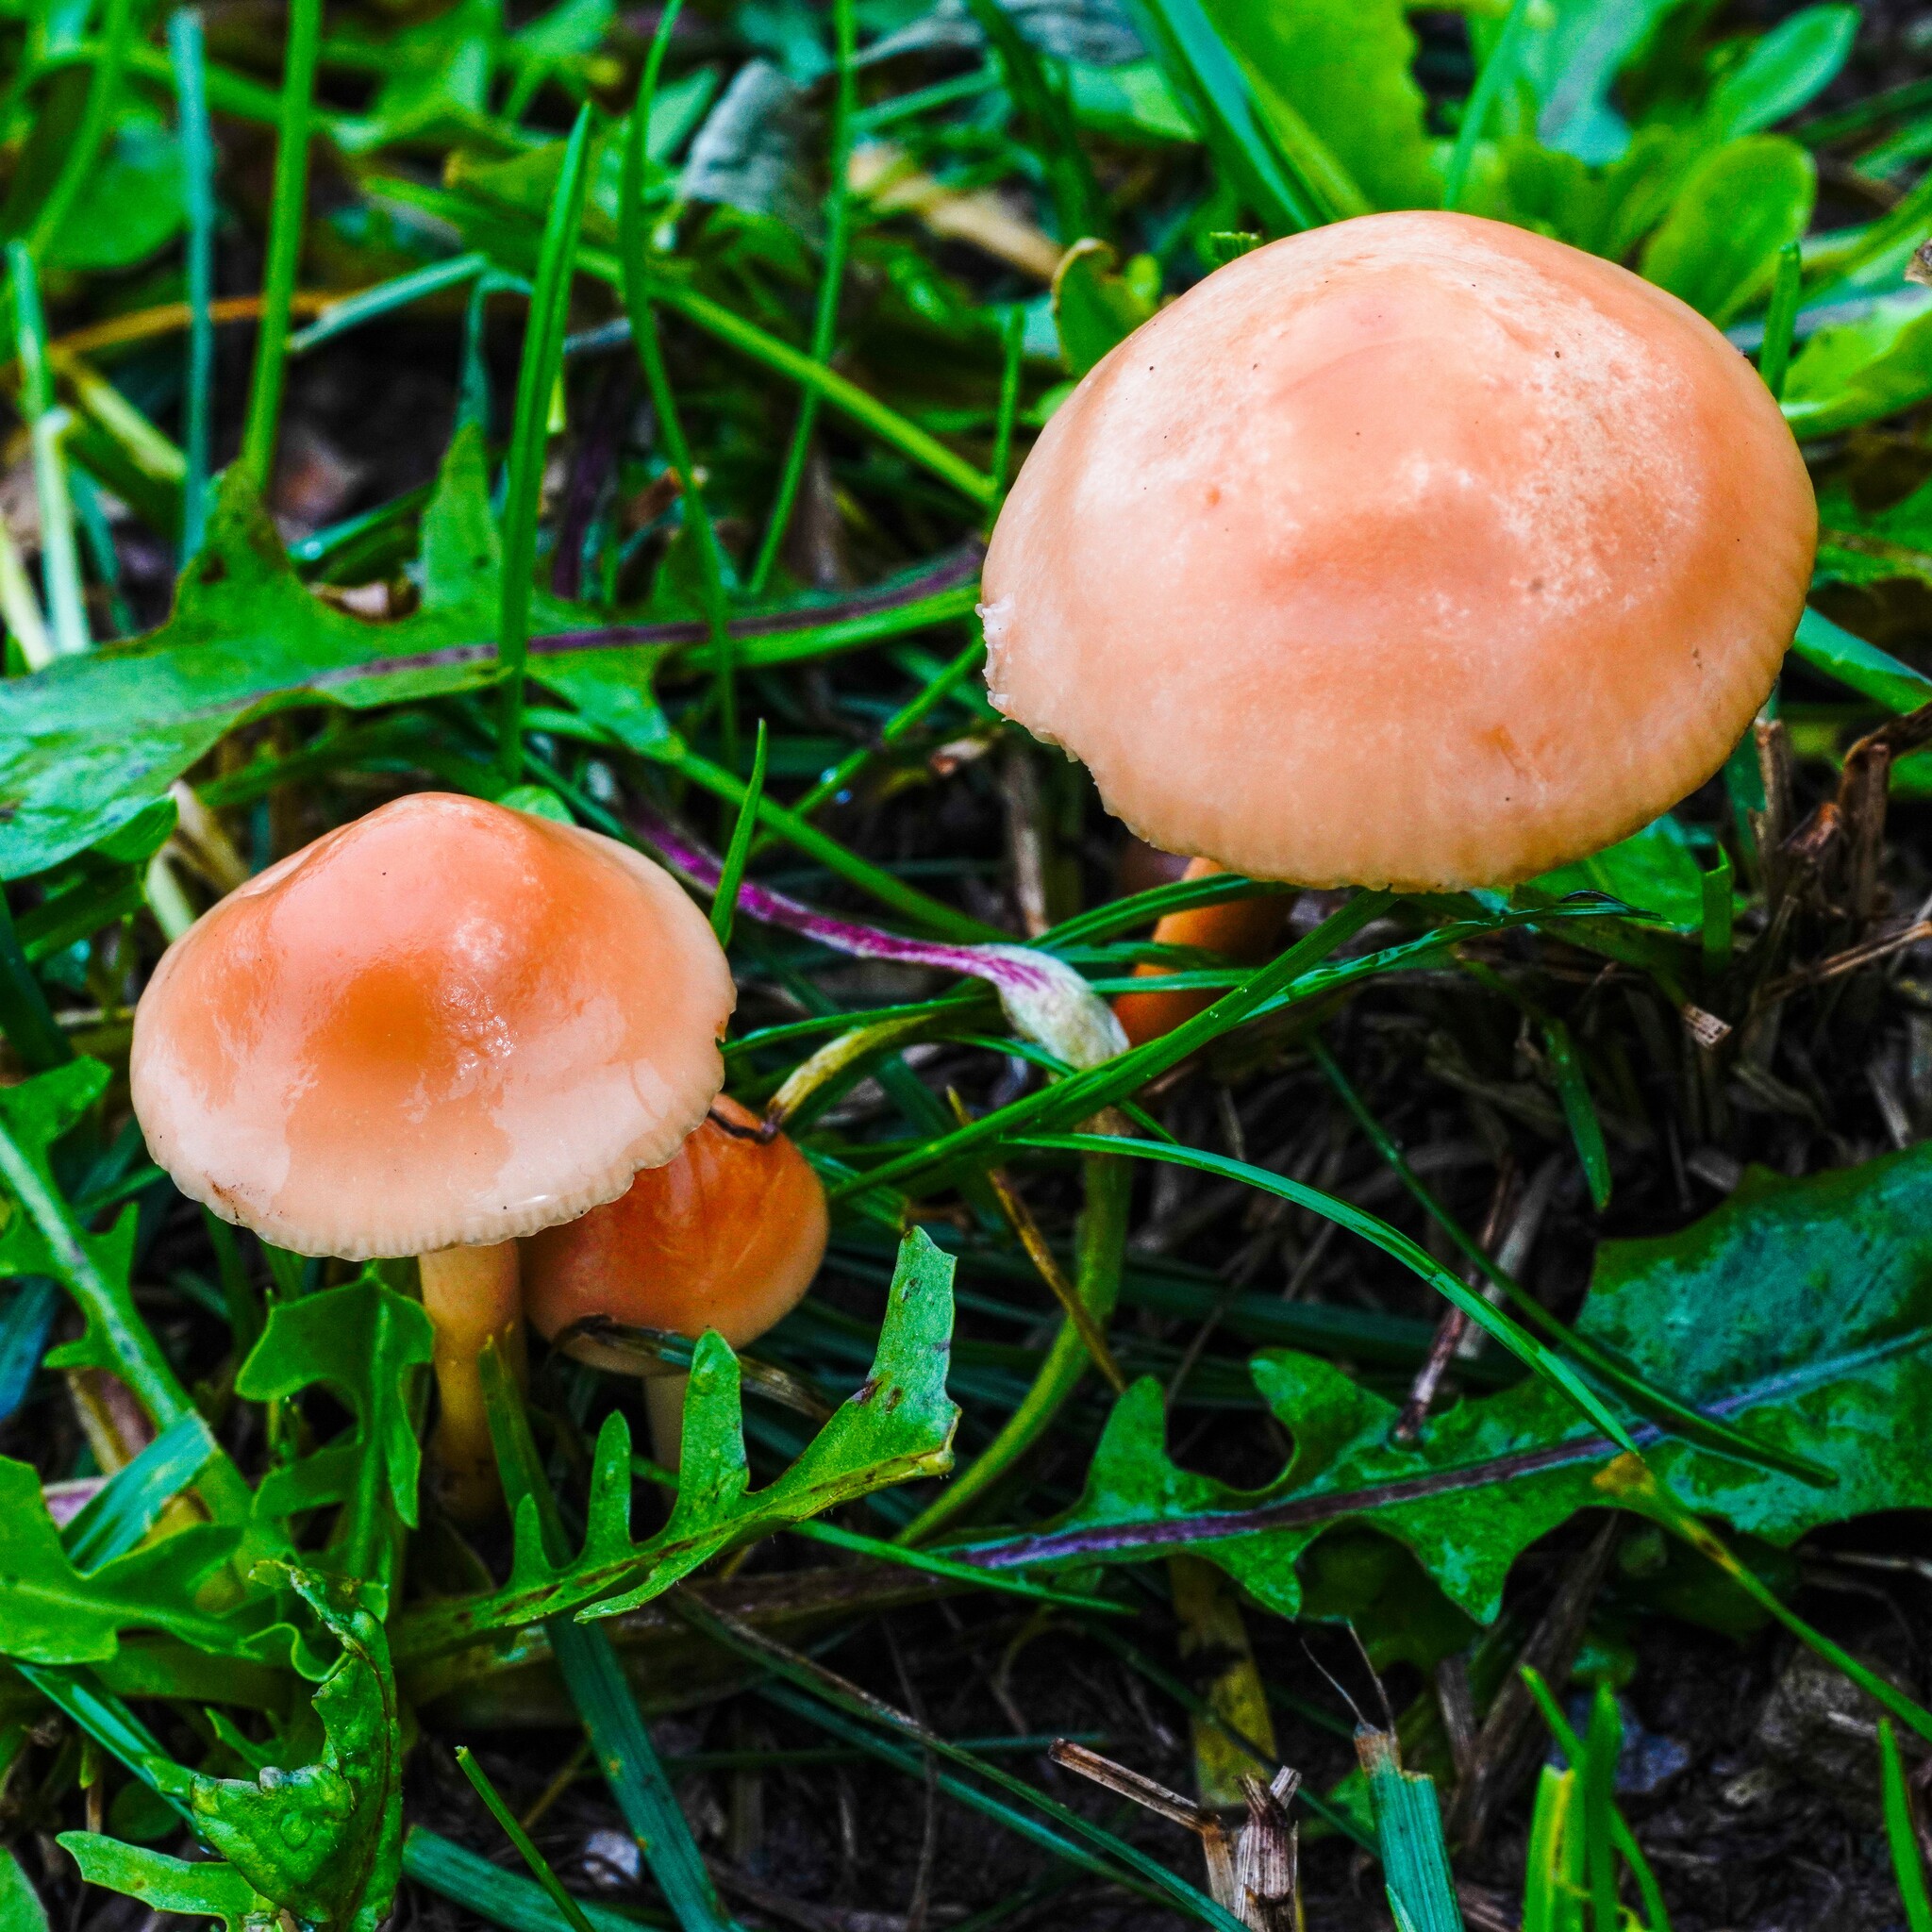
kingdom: Fungi
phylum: Basidiomycota
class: Agaricomycetes
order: Agaricales
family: Marasmiaceae
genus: Marasmius
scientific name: Marasmius oreades
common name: Fairy ring champignon
